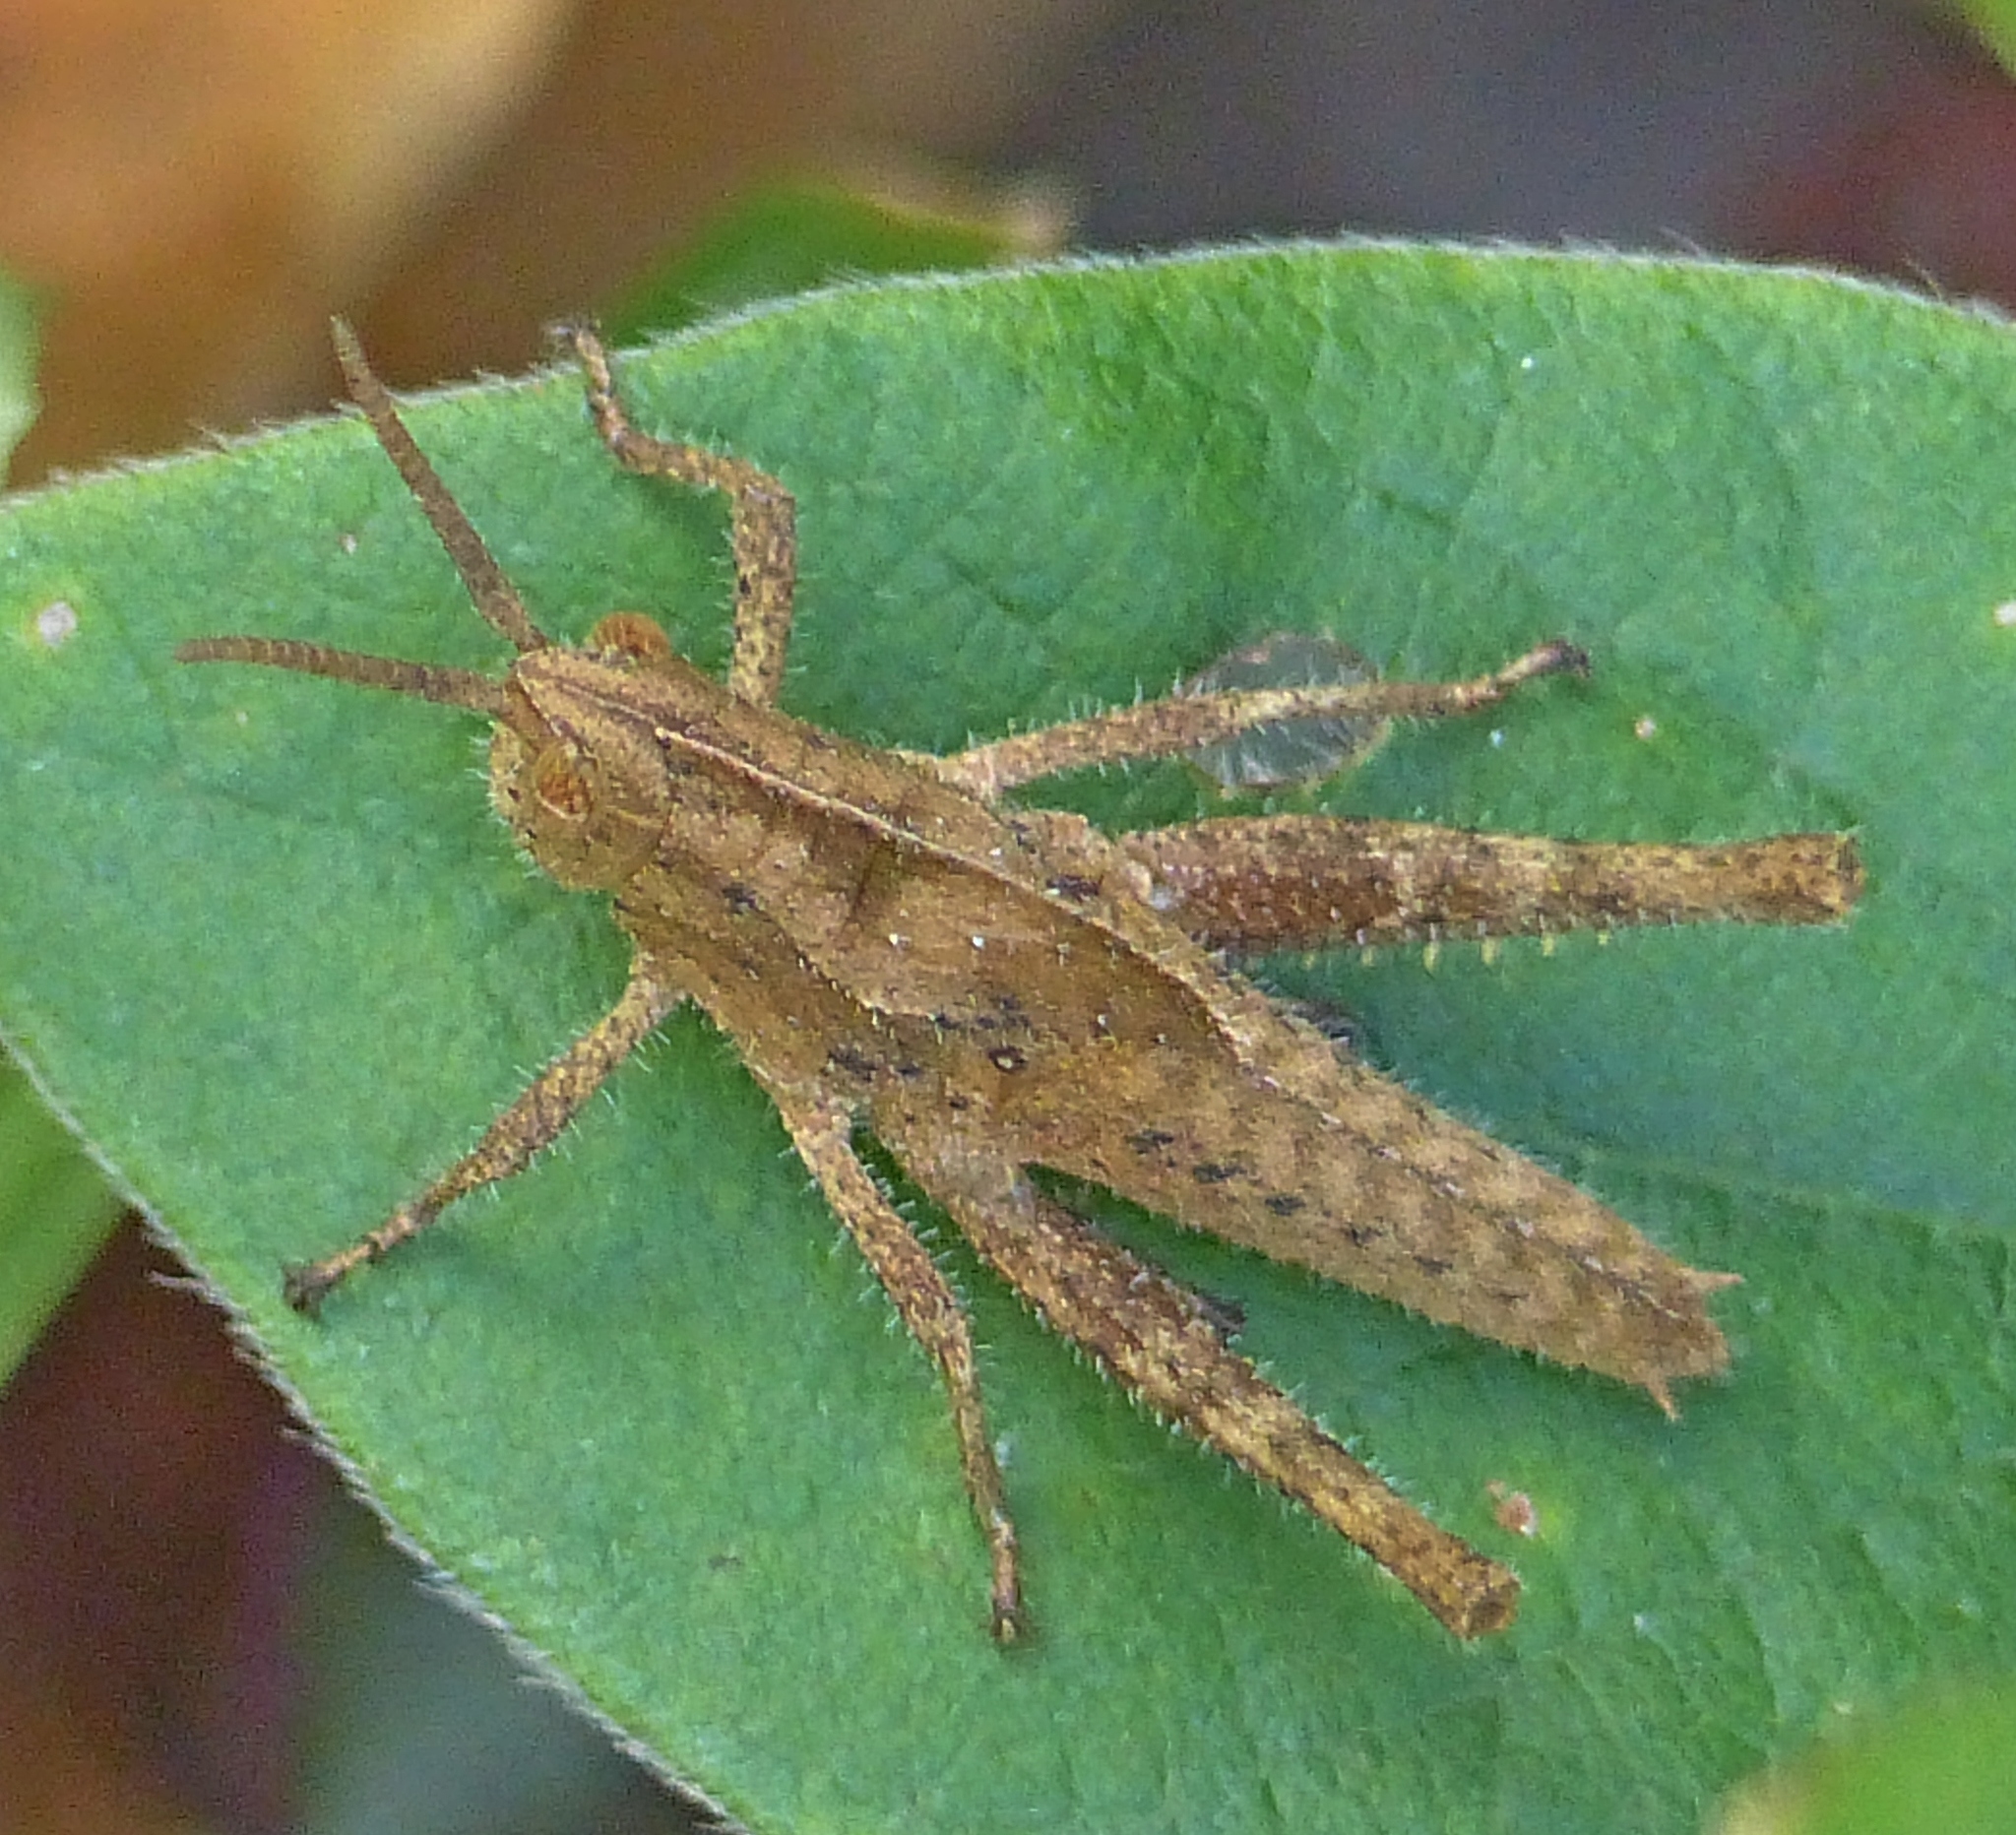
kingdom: Animalia
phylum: Arthropoda
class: Insecta
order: Orthoptera
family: Romaleidae
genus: Xyleus
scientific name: Xyleus discoideus
